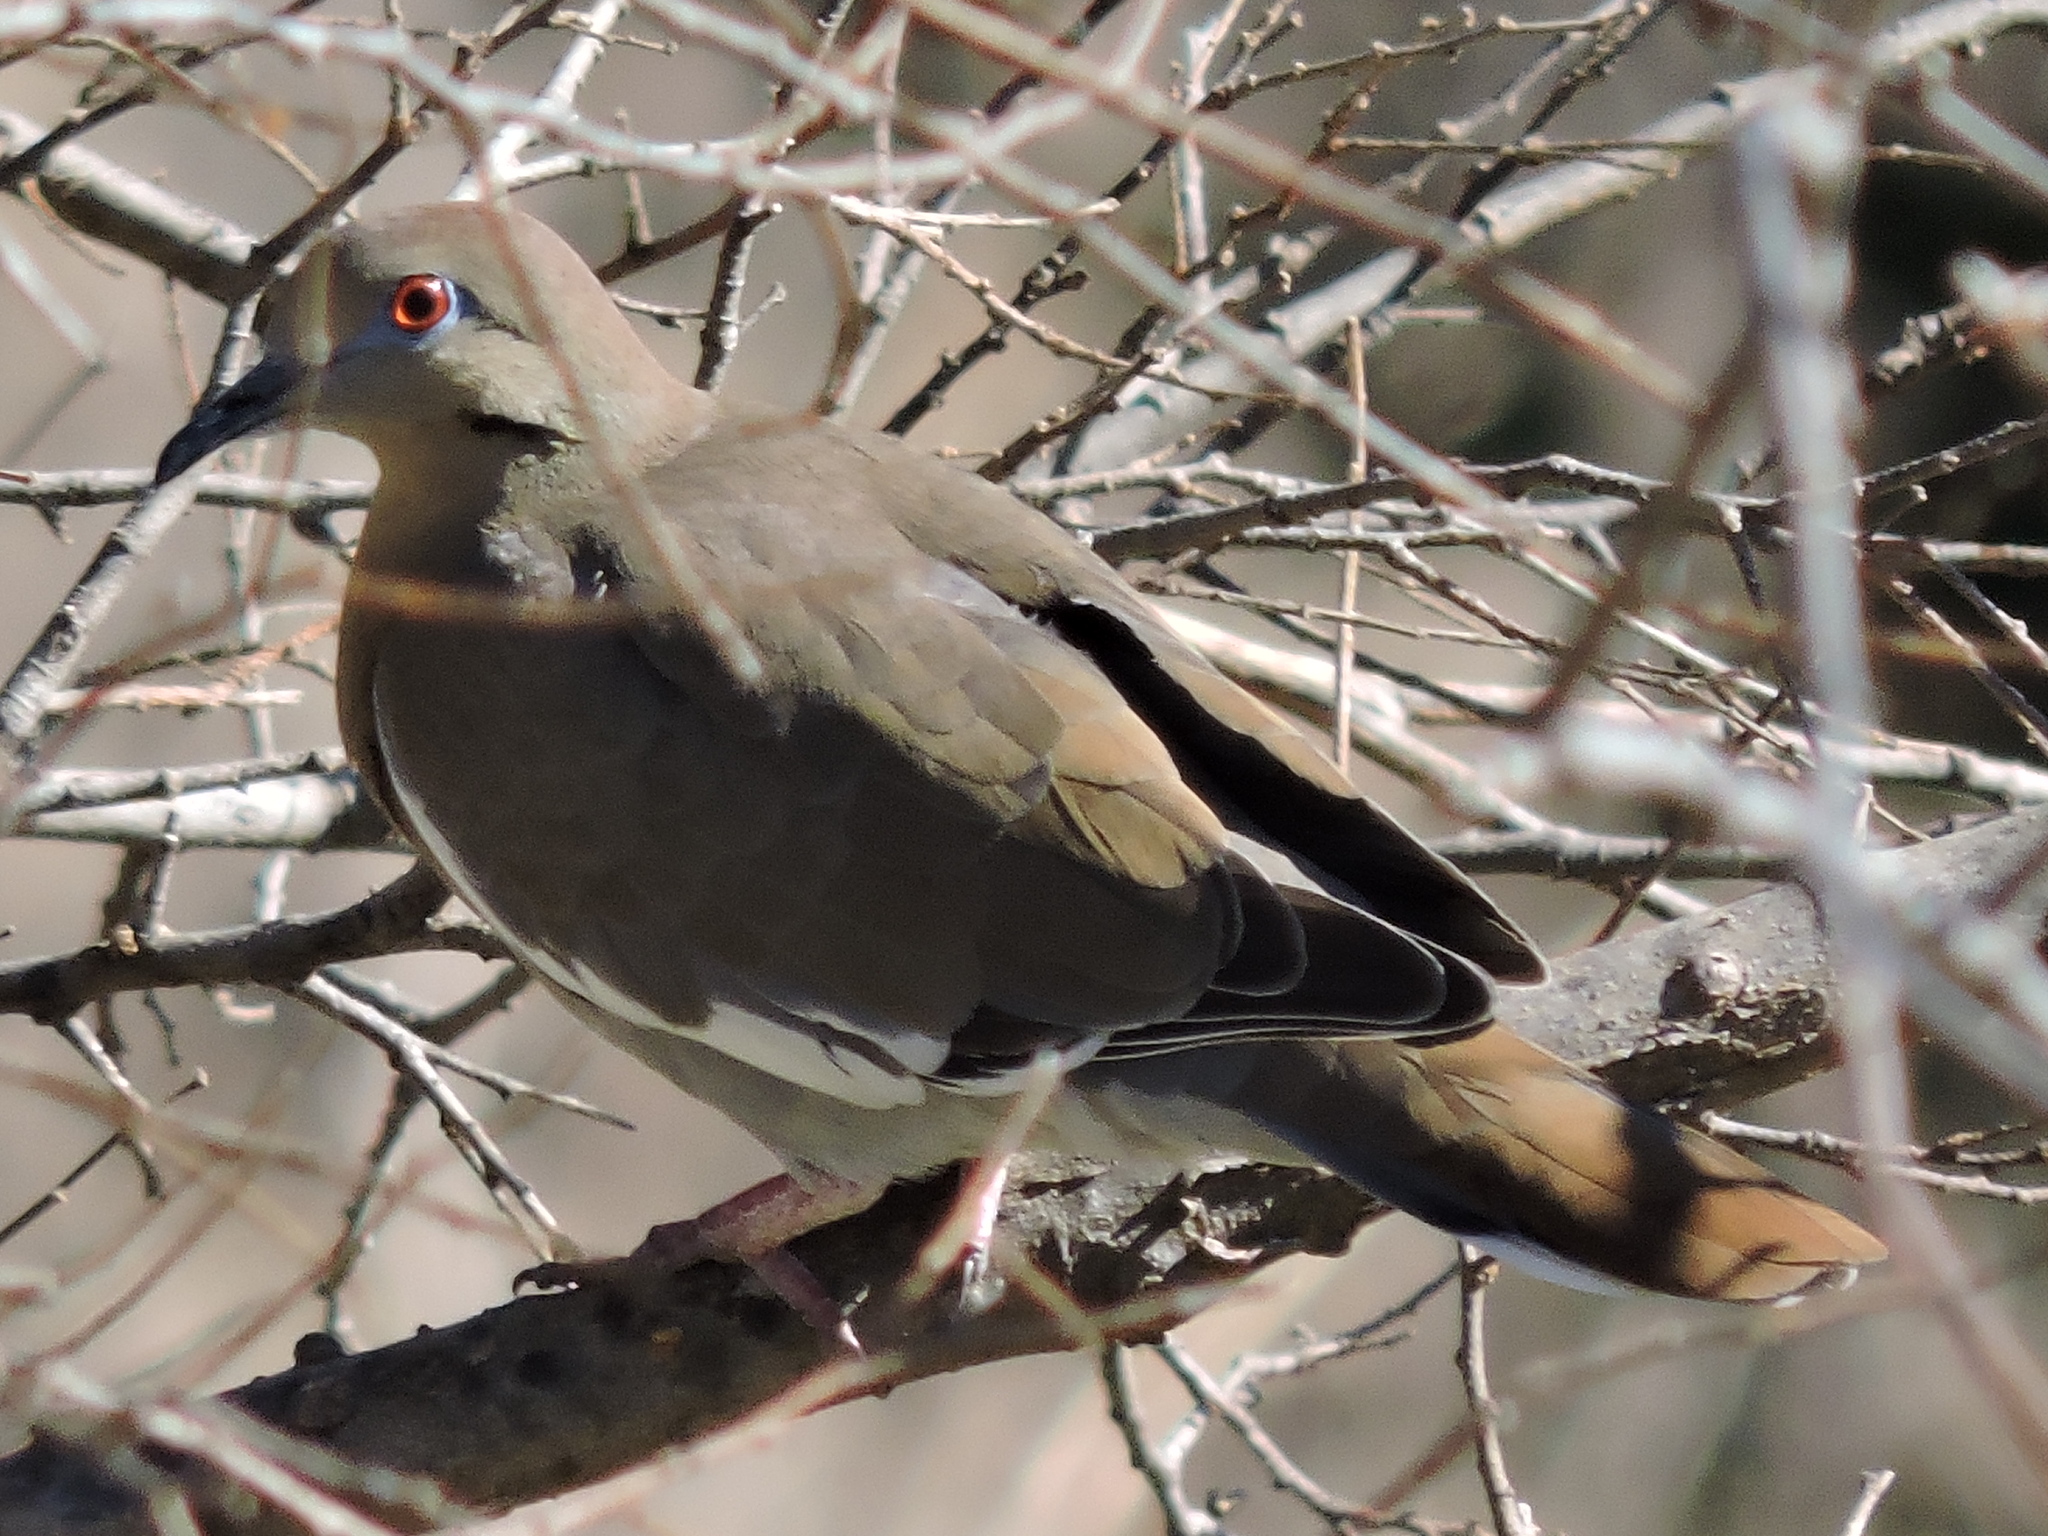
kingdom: Animalia
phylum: Chordata
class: Aves
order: Columbiformes
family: Columbidae
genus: Zenaida
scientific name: Zenaida asiatica
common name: White-winged dove
